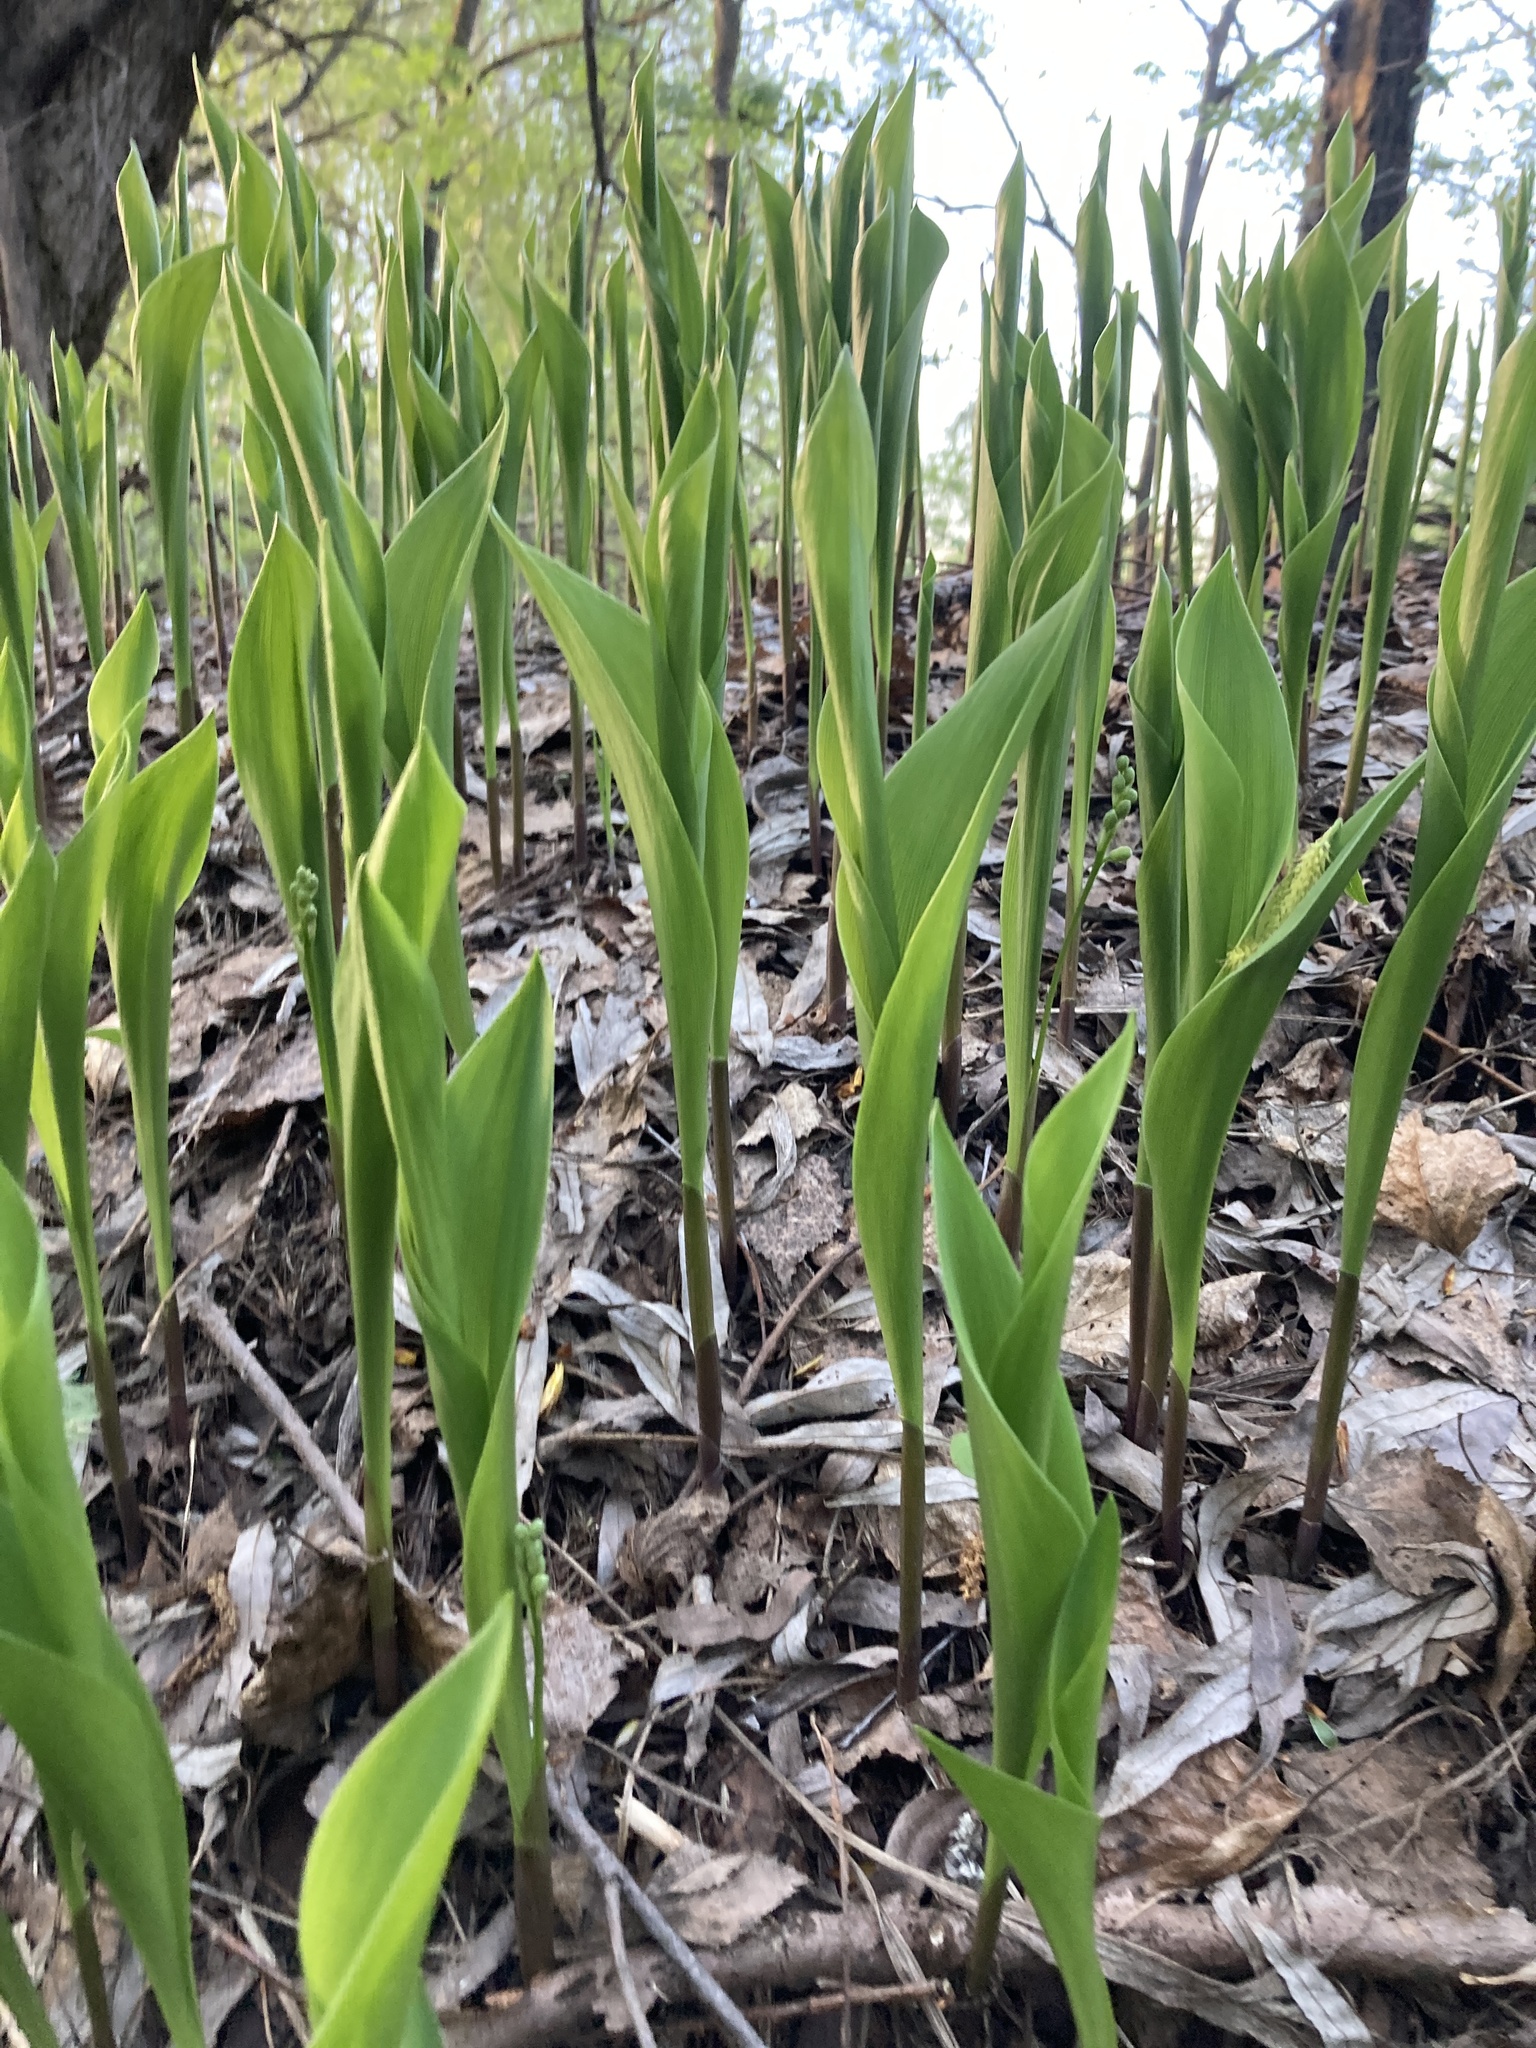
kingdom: Plantae
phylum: Tracheophyta
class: Liliopsida
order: Asparagales
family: Asparagaceae
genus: Convallaria
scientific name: Convallaria majalis
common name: Lily-of-the-valley
